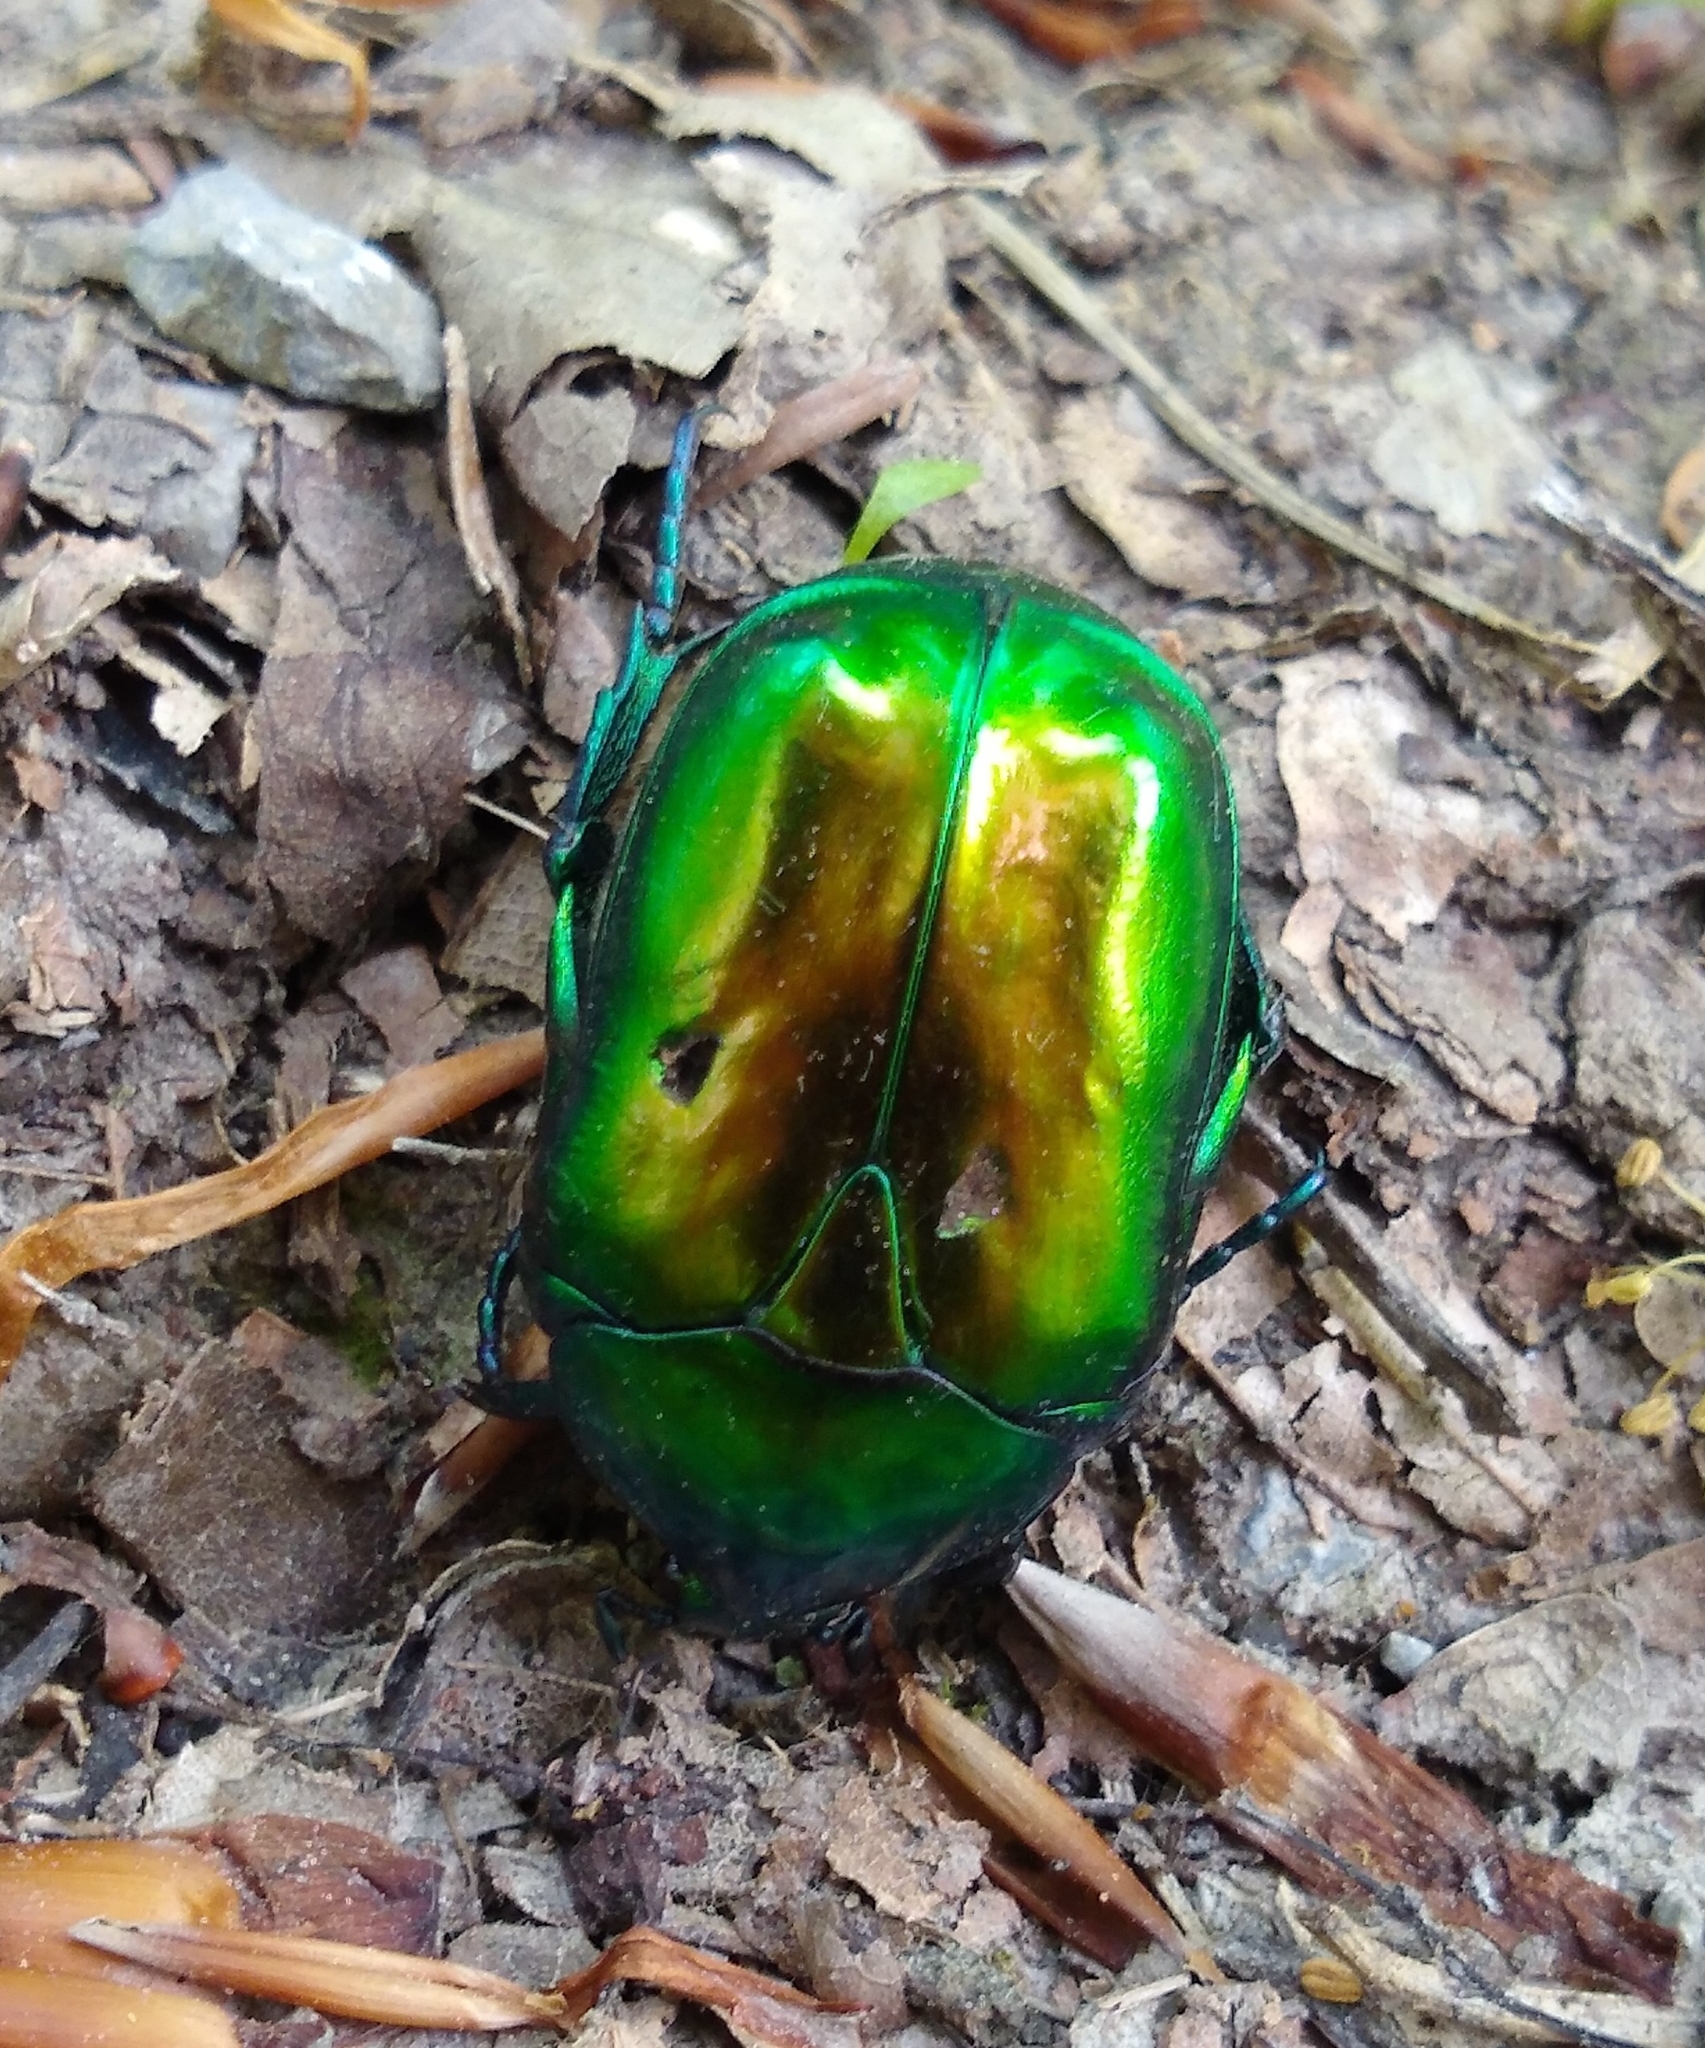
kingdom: Animalia
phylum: Arthropoda
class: Insecta
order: Coleoptera
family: Scarabaeidae
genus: Protaetia
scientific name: Protaetia speciosissima
